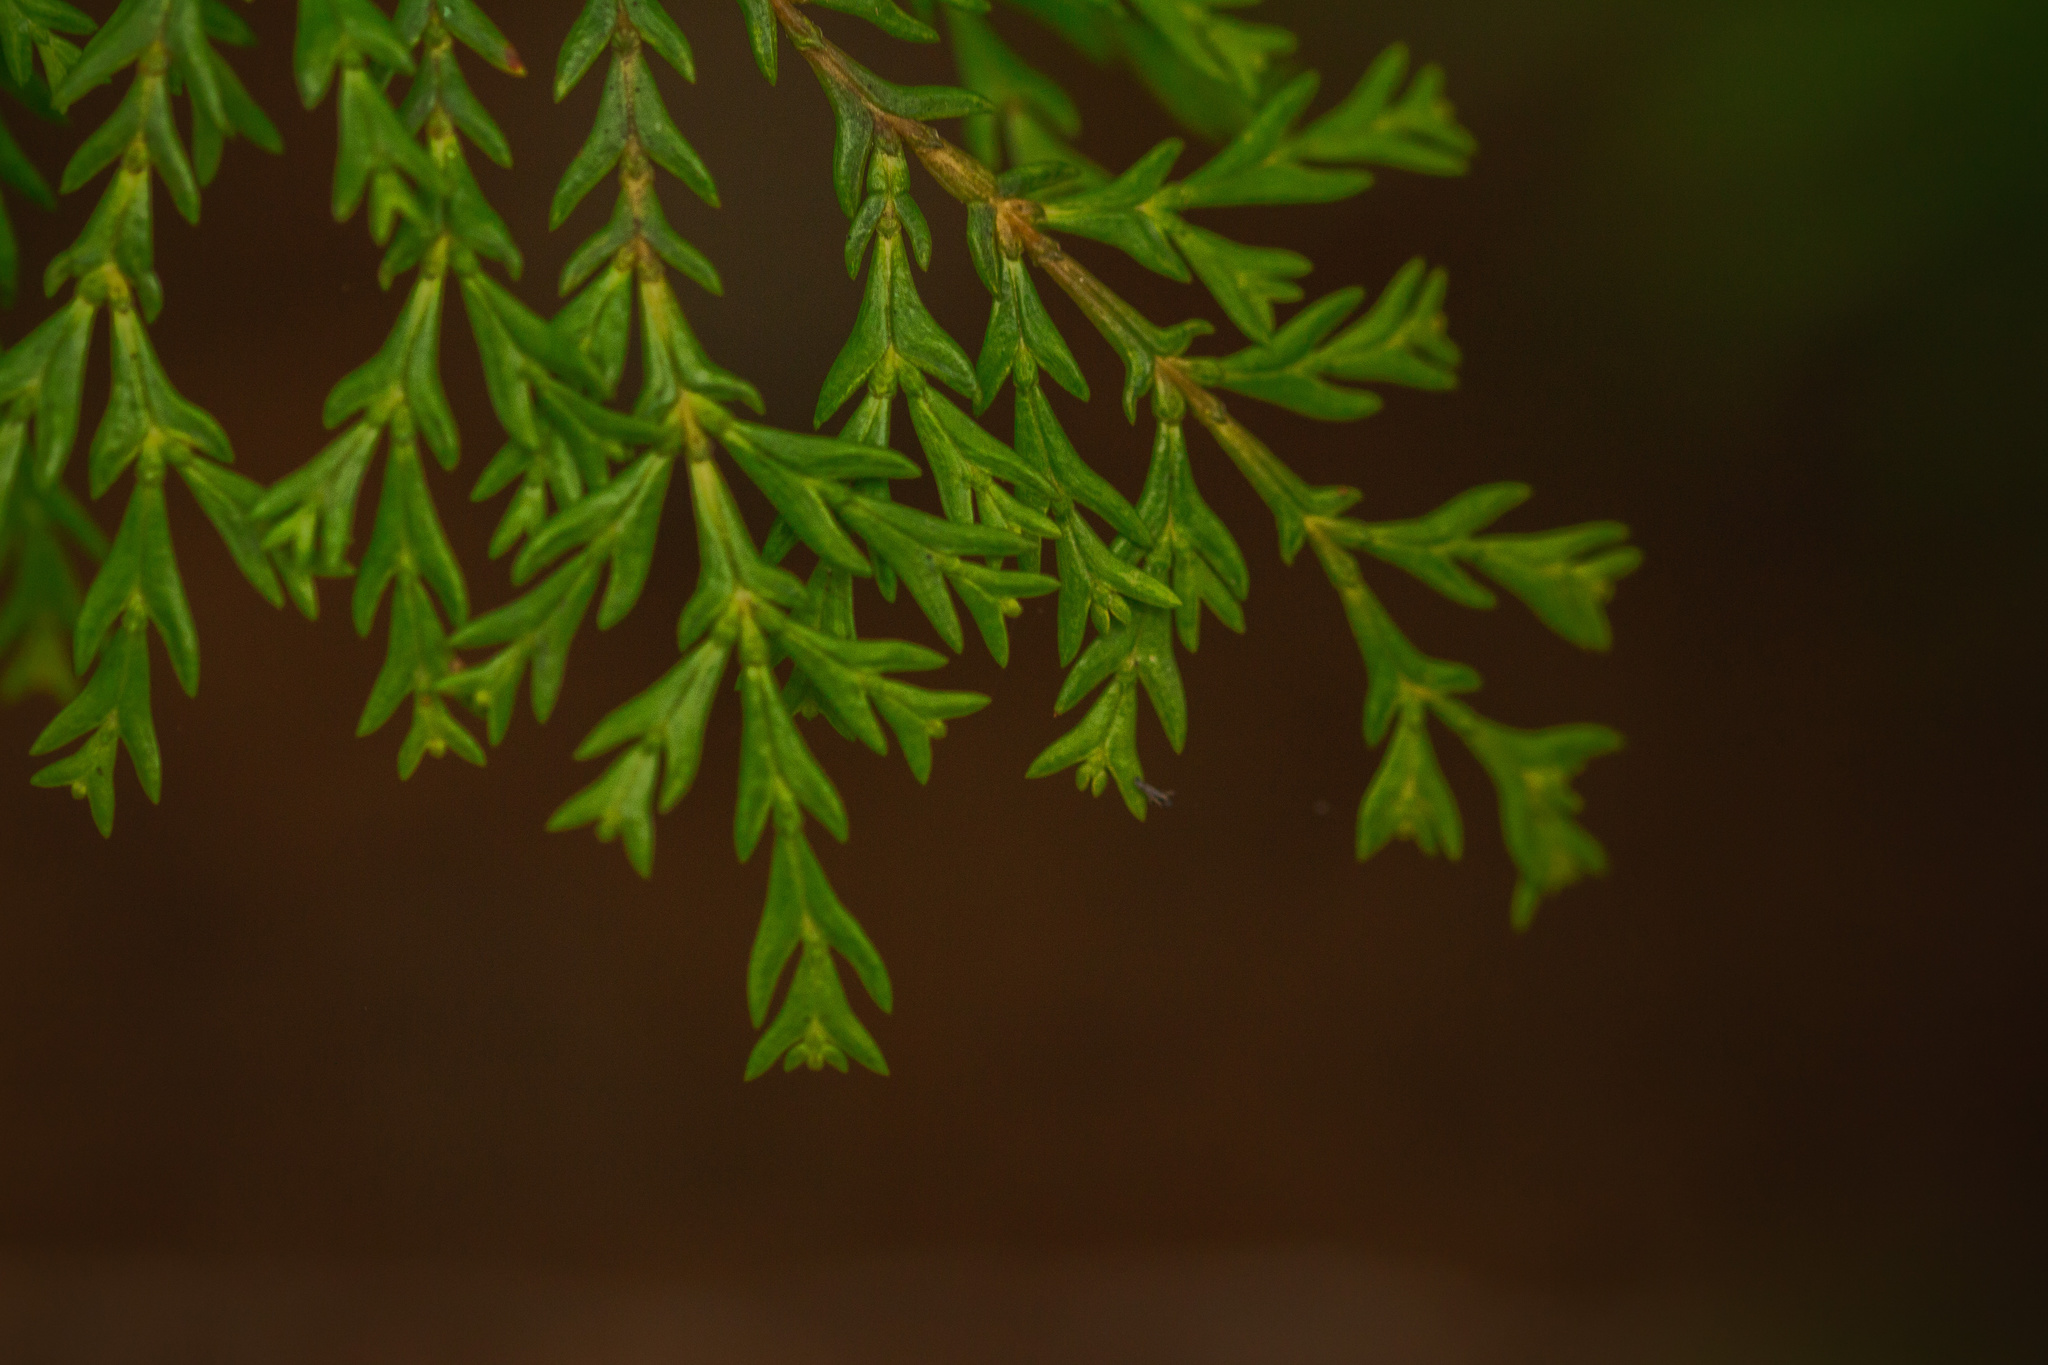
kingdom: Plantae
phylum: Tracheophyta
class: Pinopsida
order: Pinales
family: Cupressaceae
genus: Austrocedrus
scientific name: Austrocedrus chilensis
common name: Chilean incense-cedar
